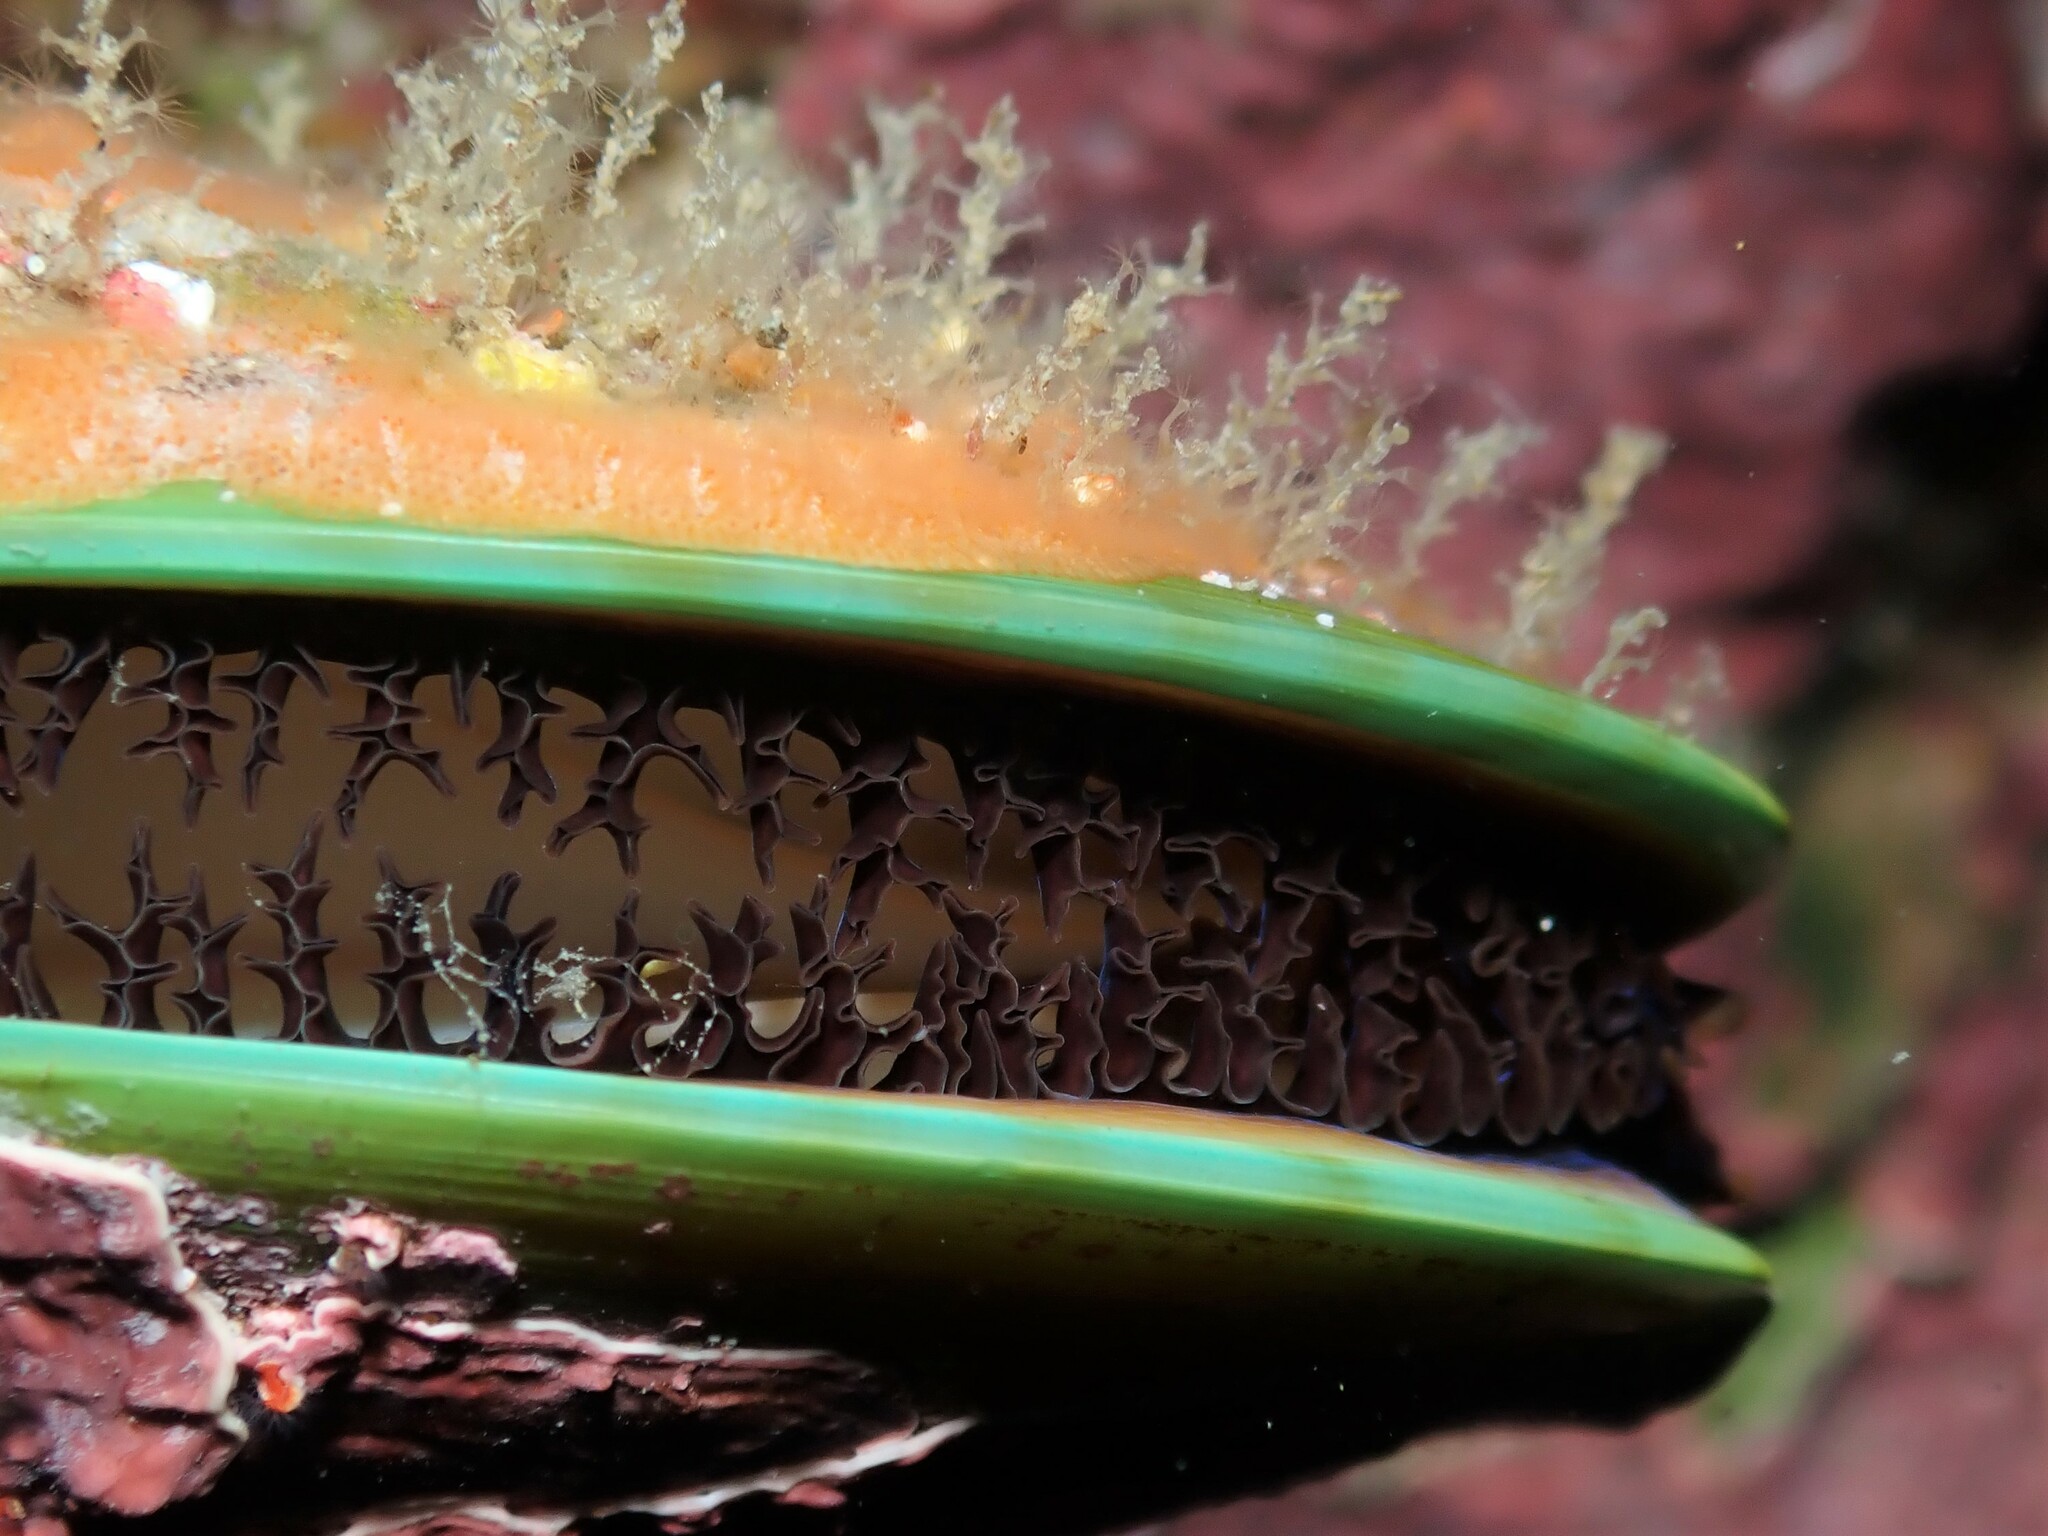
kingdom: Animalia
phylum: Mollusca
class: Bivalvia
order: Mytilida
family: Mytilidae
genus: Perna
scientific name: Perna canaliculus
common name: New zealand greenshelltm
